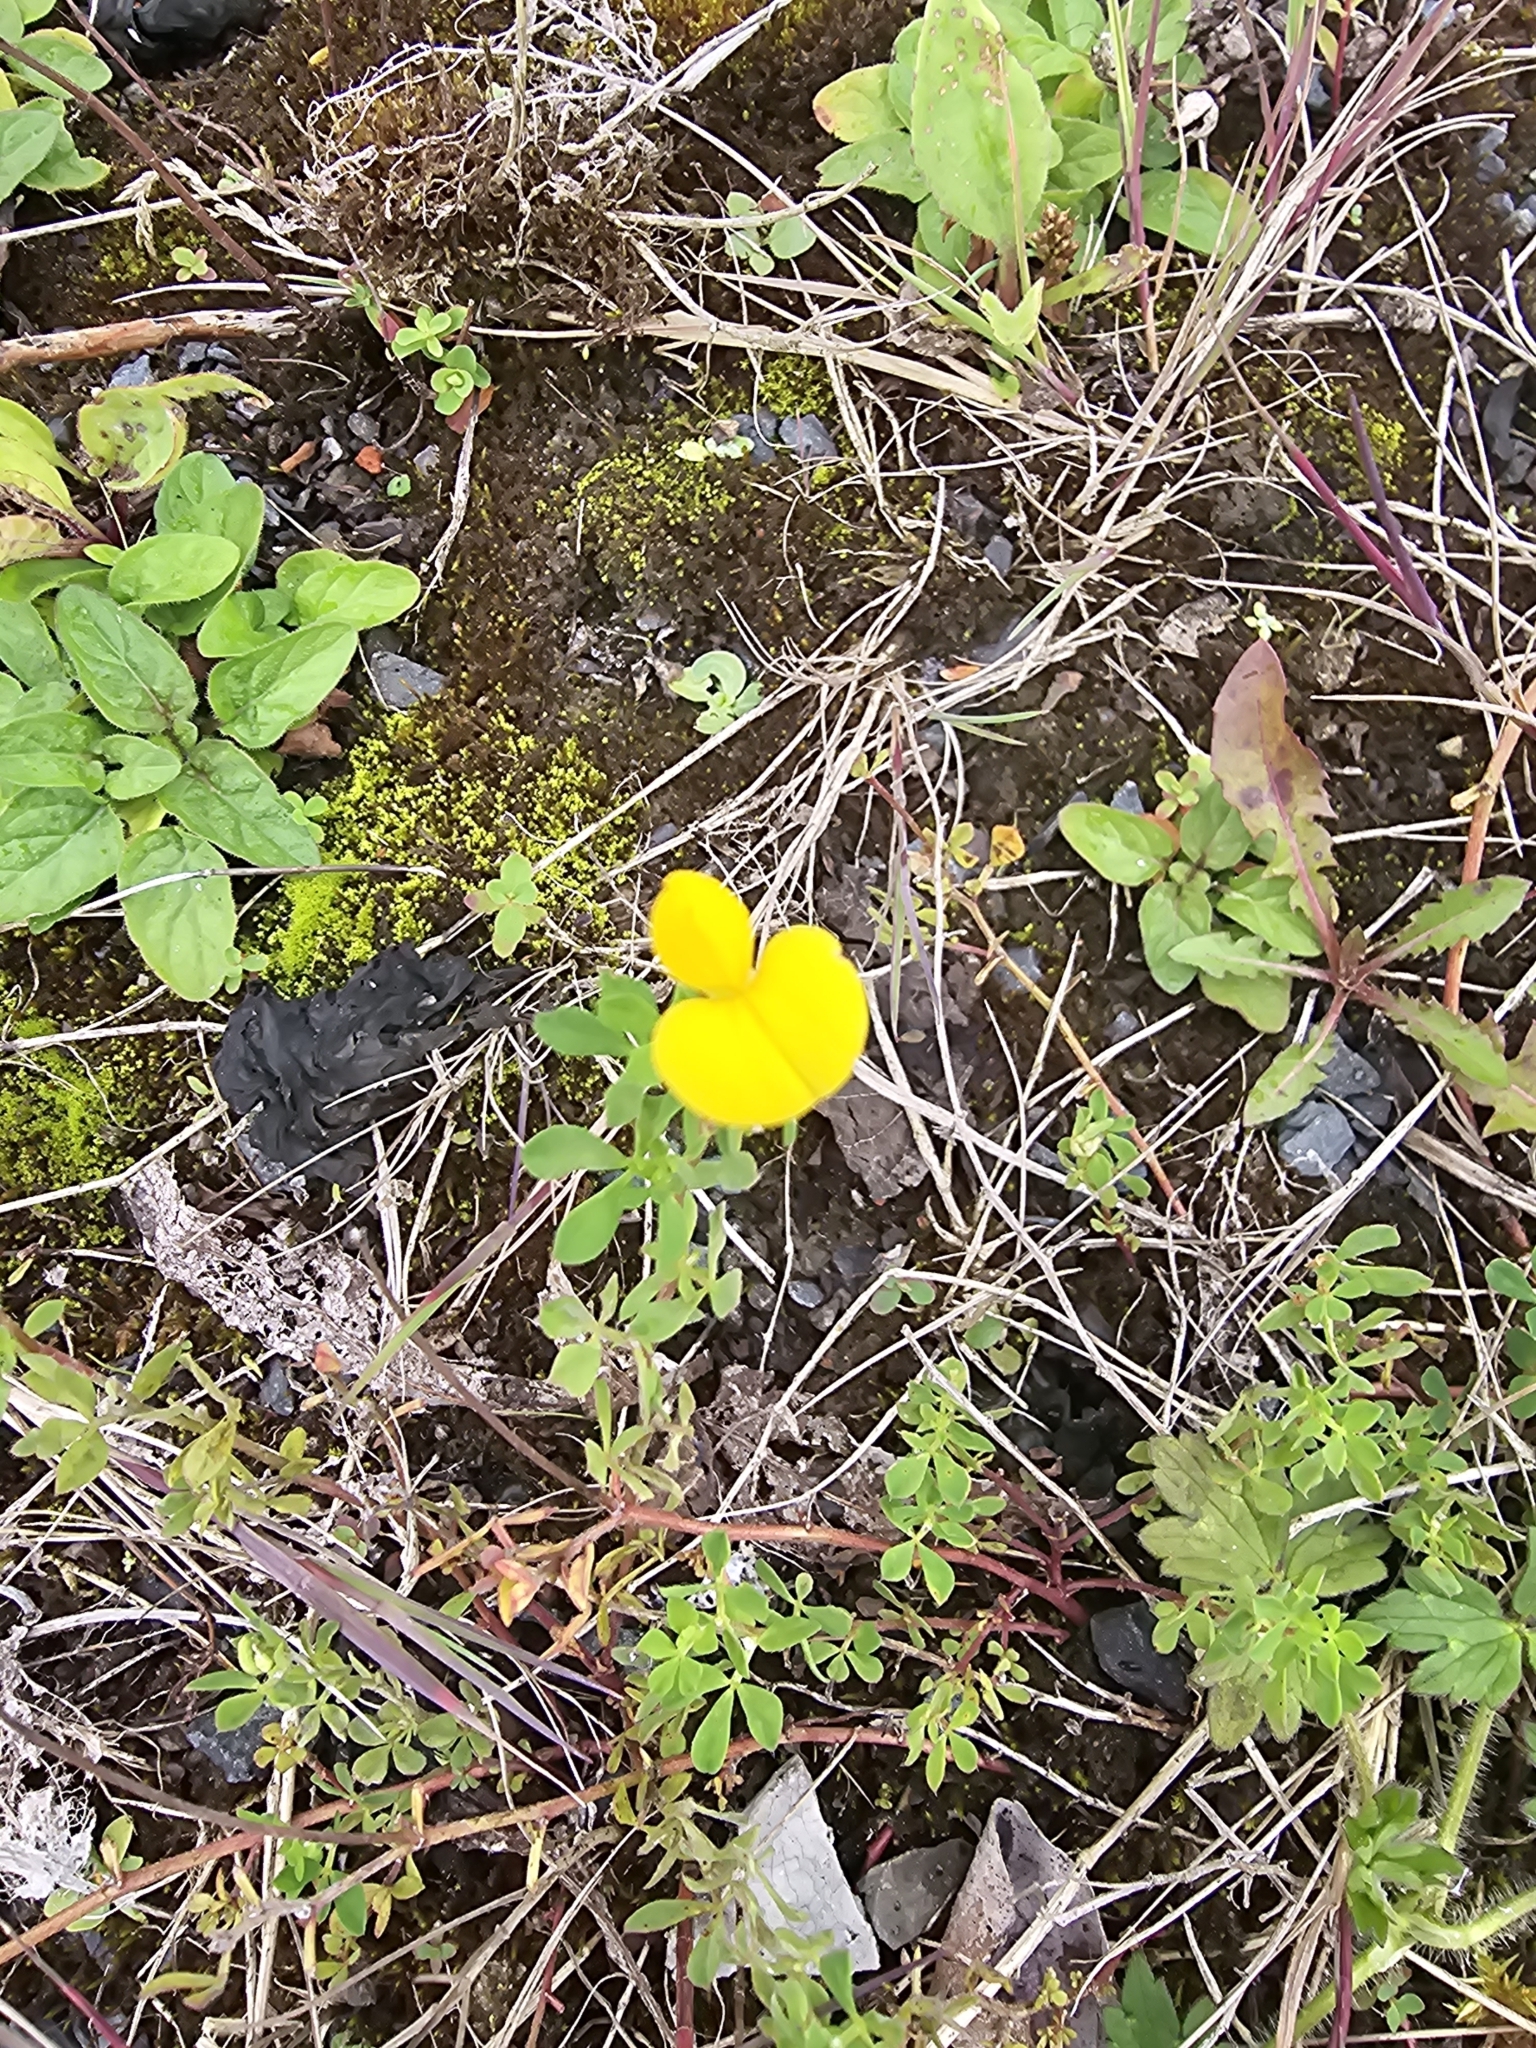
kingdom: Plantae
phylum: Tracheophyta
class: Magnoliopsida
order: Fabales
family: Fabaceae
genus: Lotus
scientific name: Lotus corniculatus
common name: Common bird's-foot-trefoil
